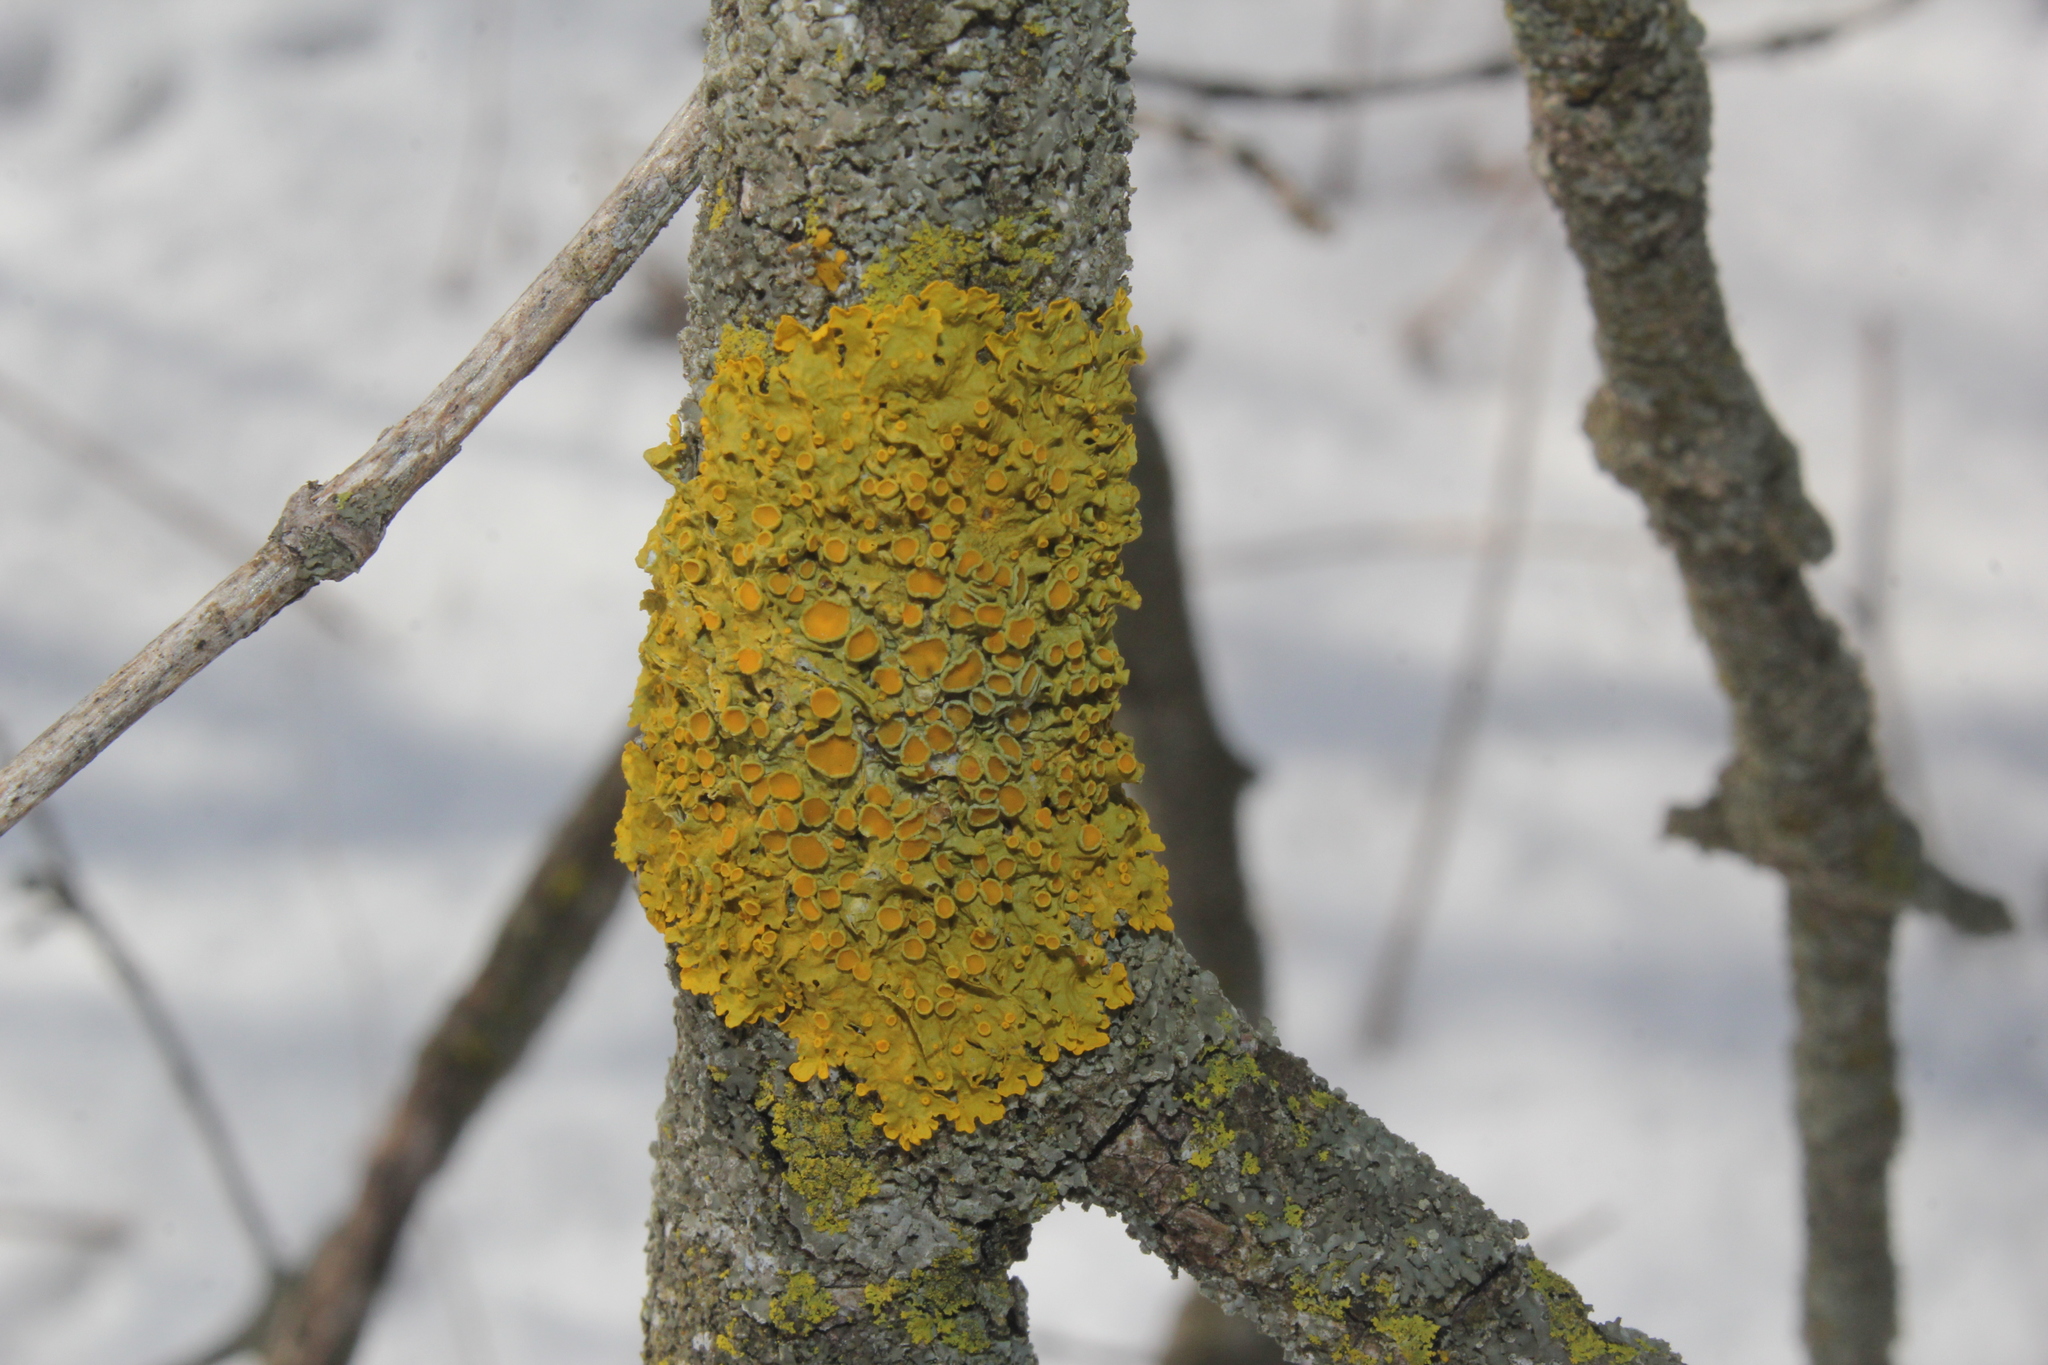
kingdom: Fungi
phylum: Ascomycota
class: Lecanoromycetes
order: Teloschistales
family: Teloschistaceae
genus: Xanthoria
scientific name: Xanthoria parietina
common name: Common orange lichen
